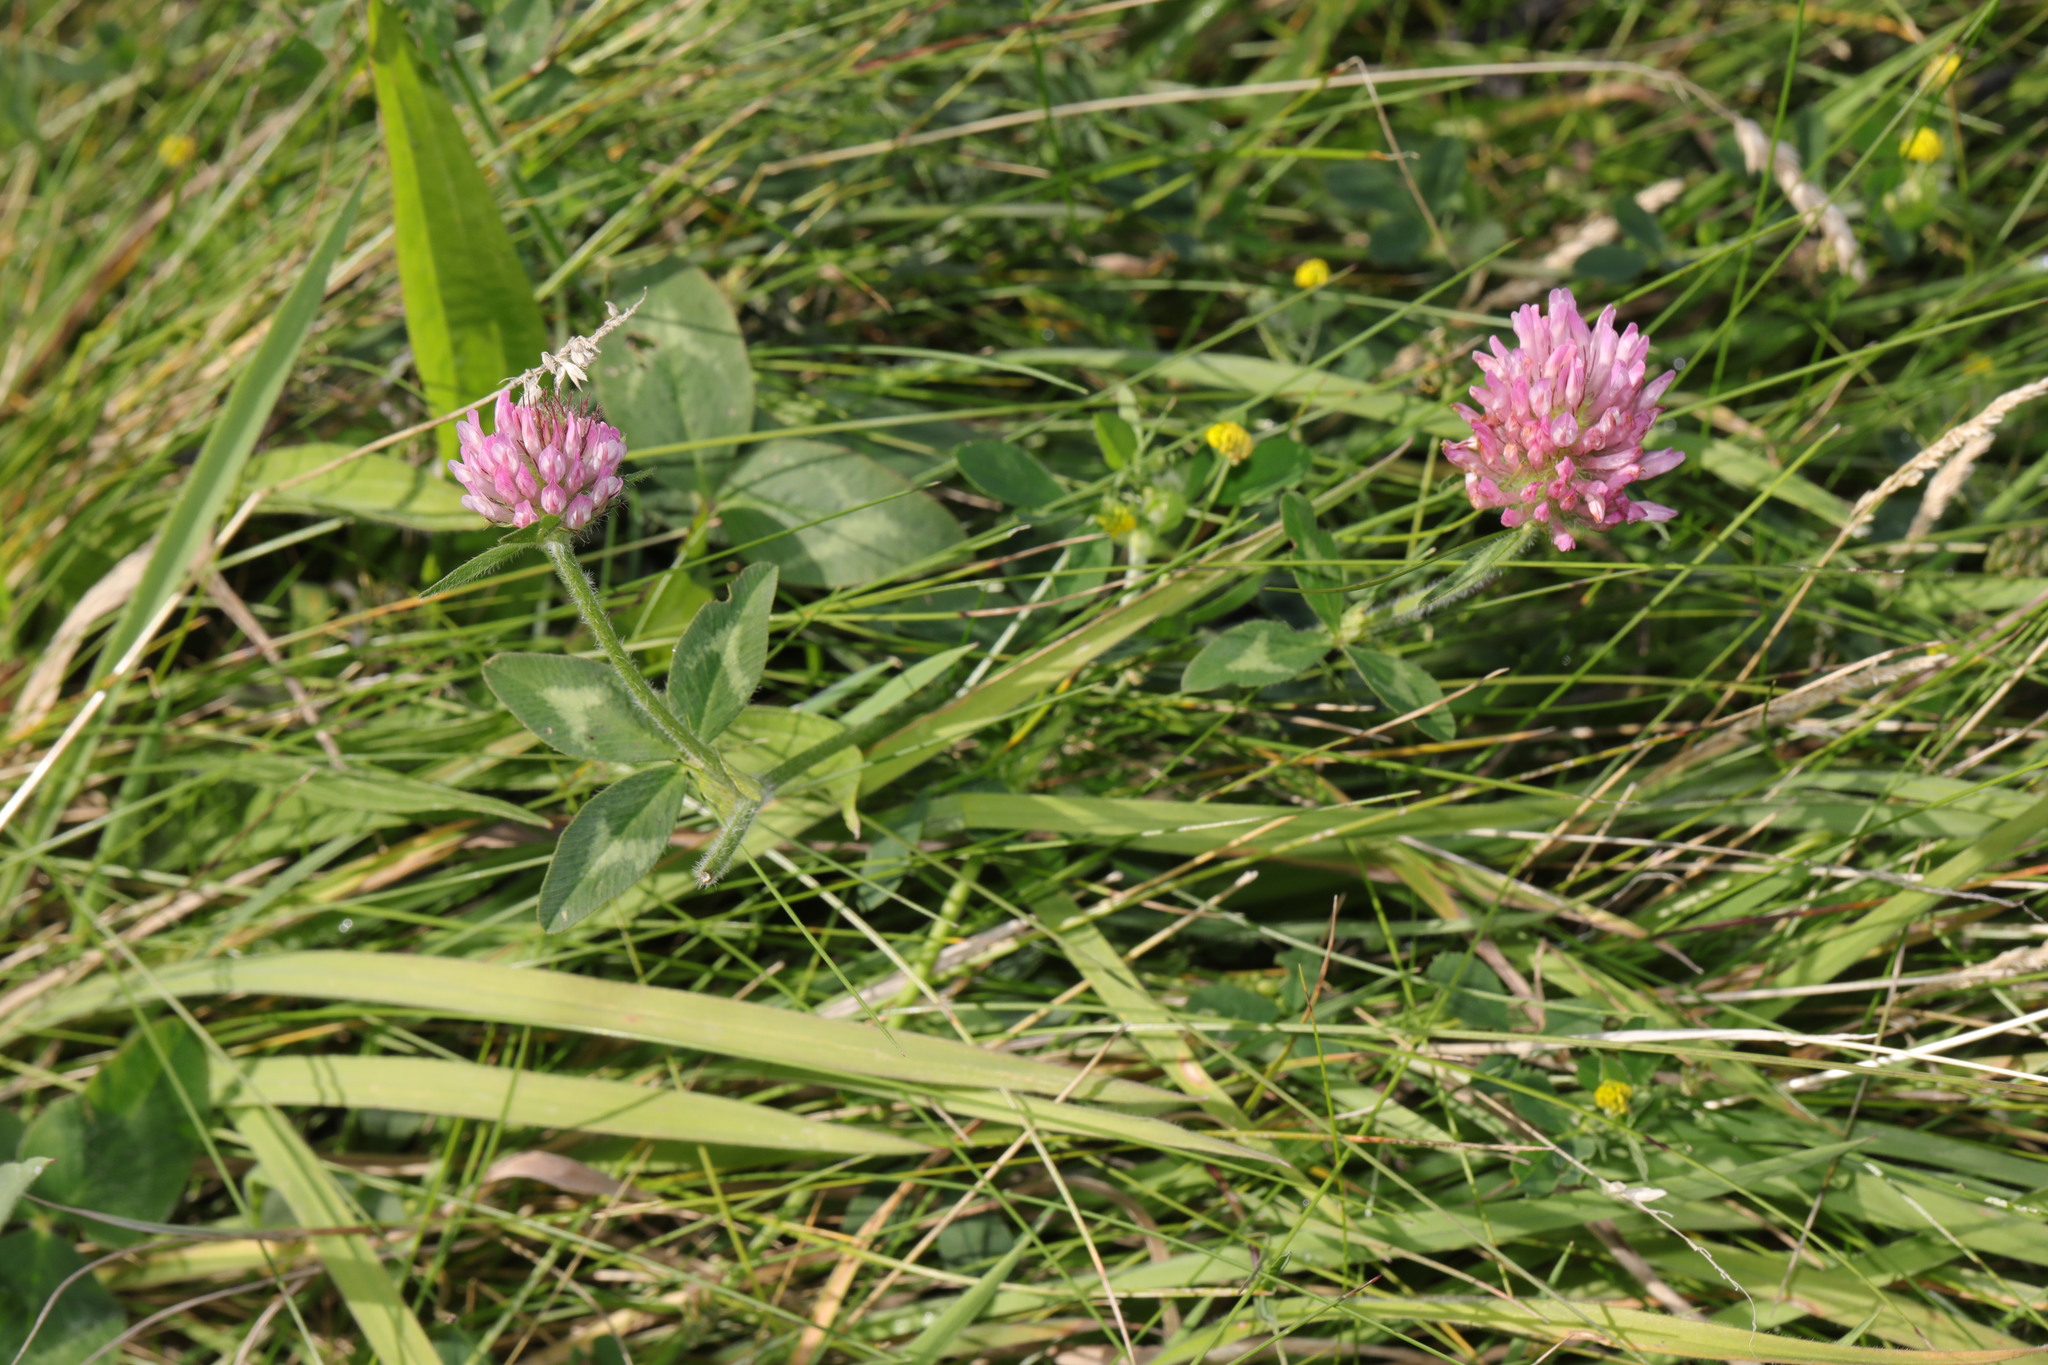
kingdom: Plantae
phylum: Tracheophyta
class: Magnoliopsida
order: Fabales
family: Fabaceae
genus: Trifolium
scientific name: Trifolium pratense
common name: Red clover
